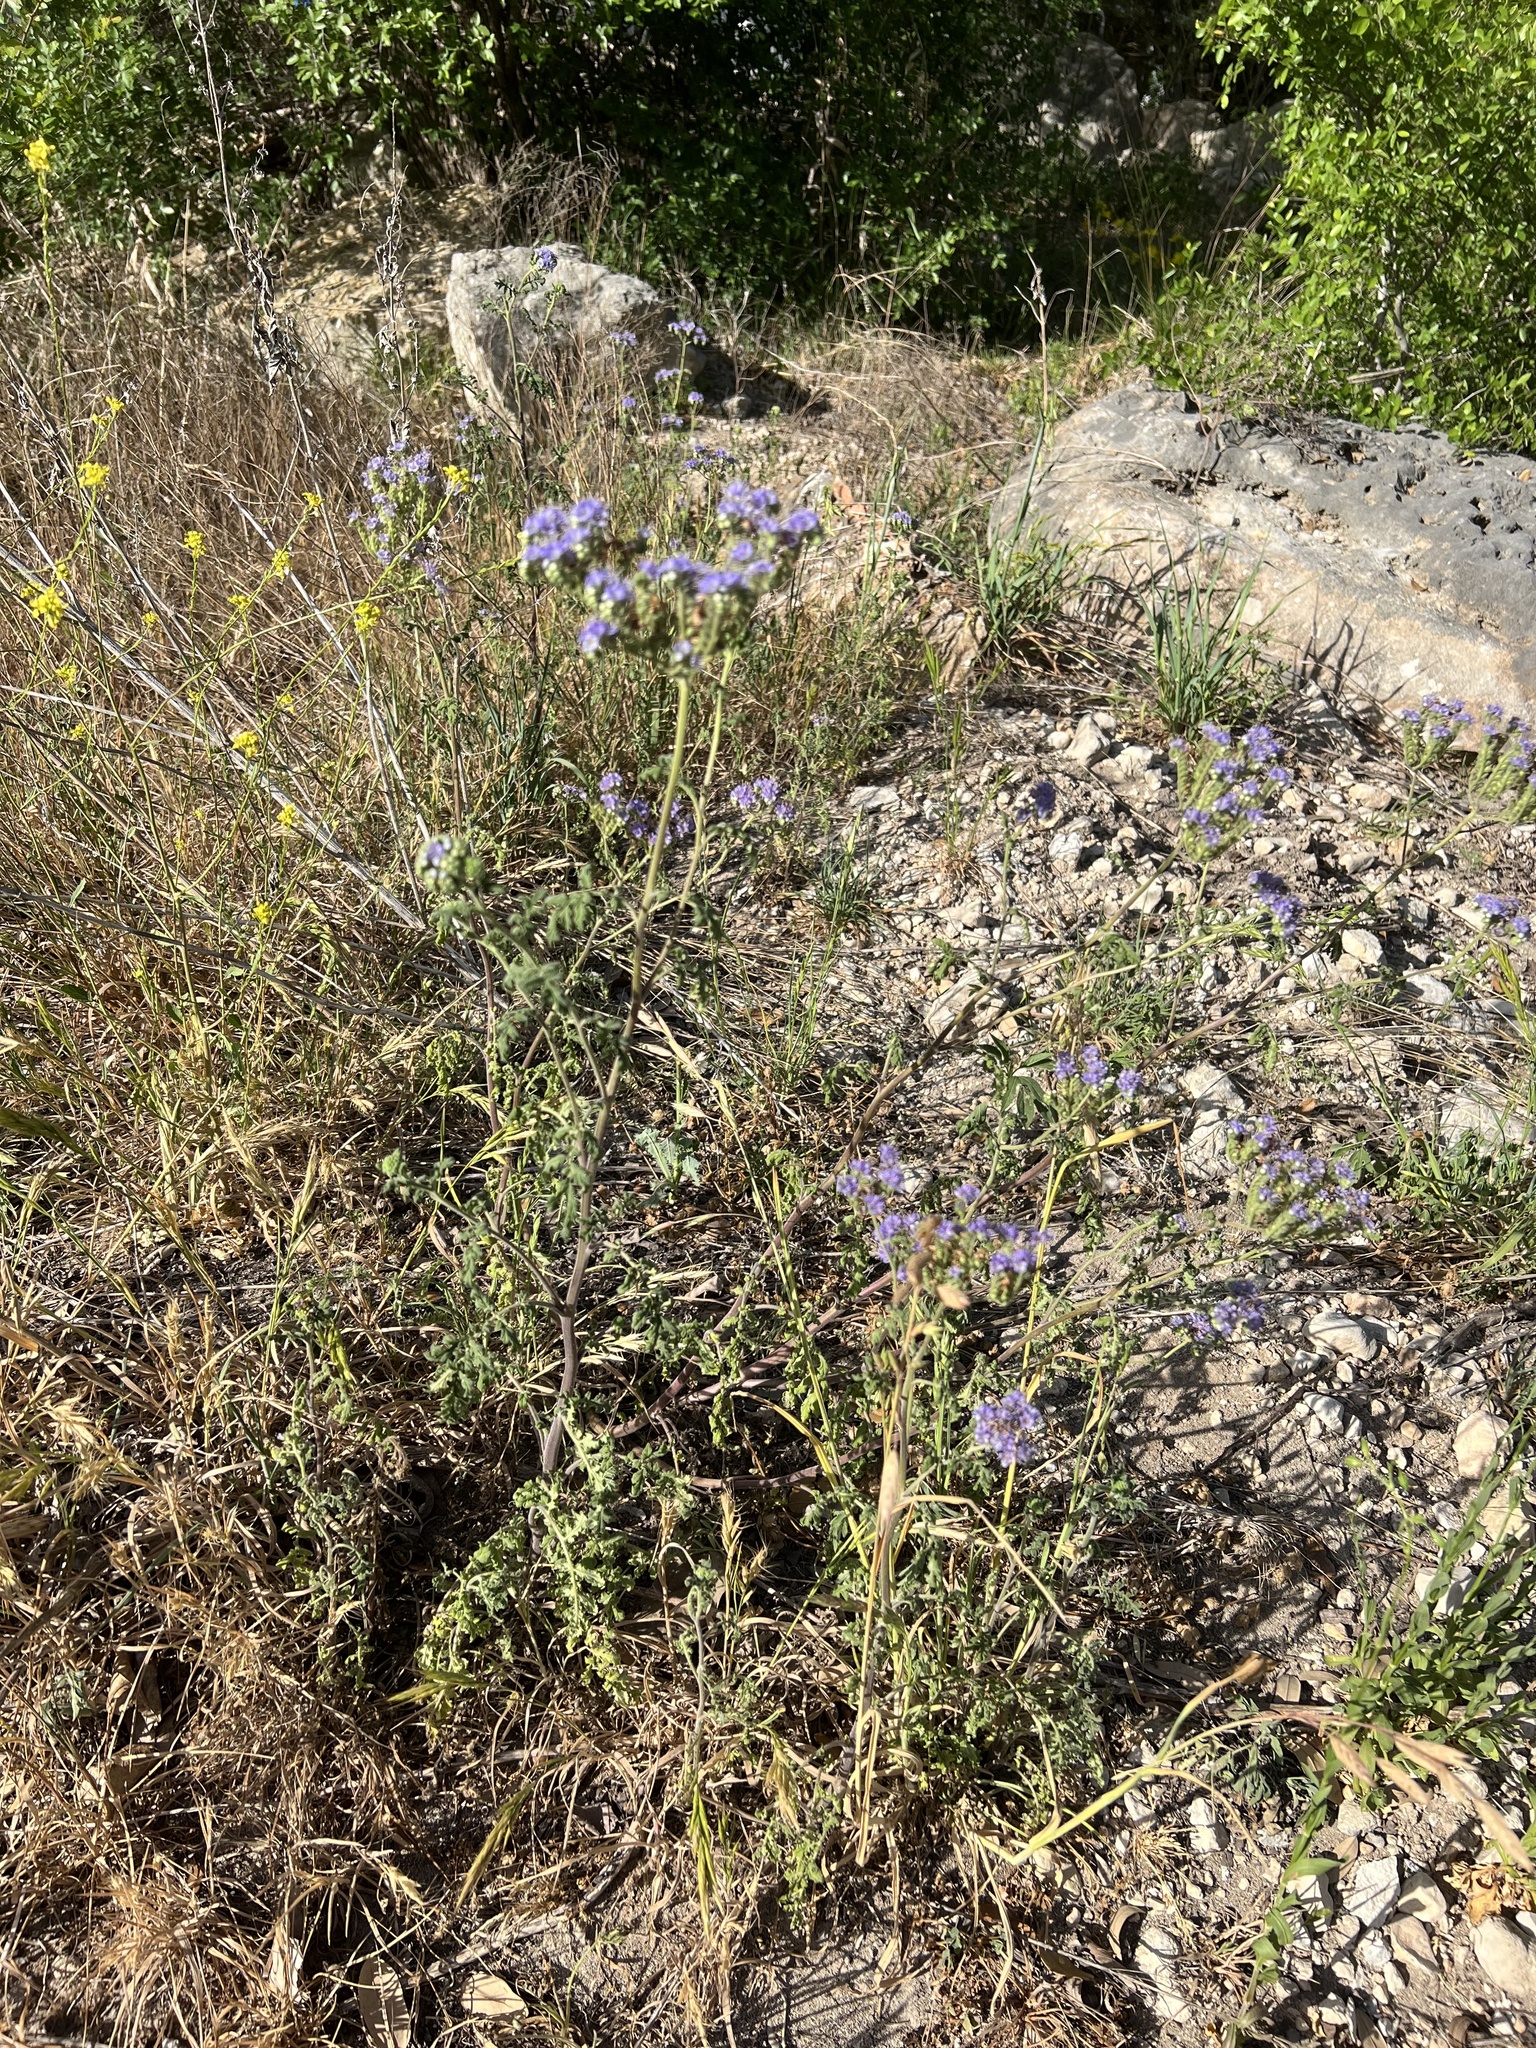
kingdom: Plantae
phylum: Tracheophyta
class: Magnoliopsida
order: Boraginales
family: Hydrophyllaceae
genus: Phacelia
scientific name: Phacelia congesta
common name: Blue curls
